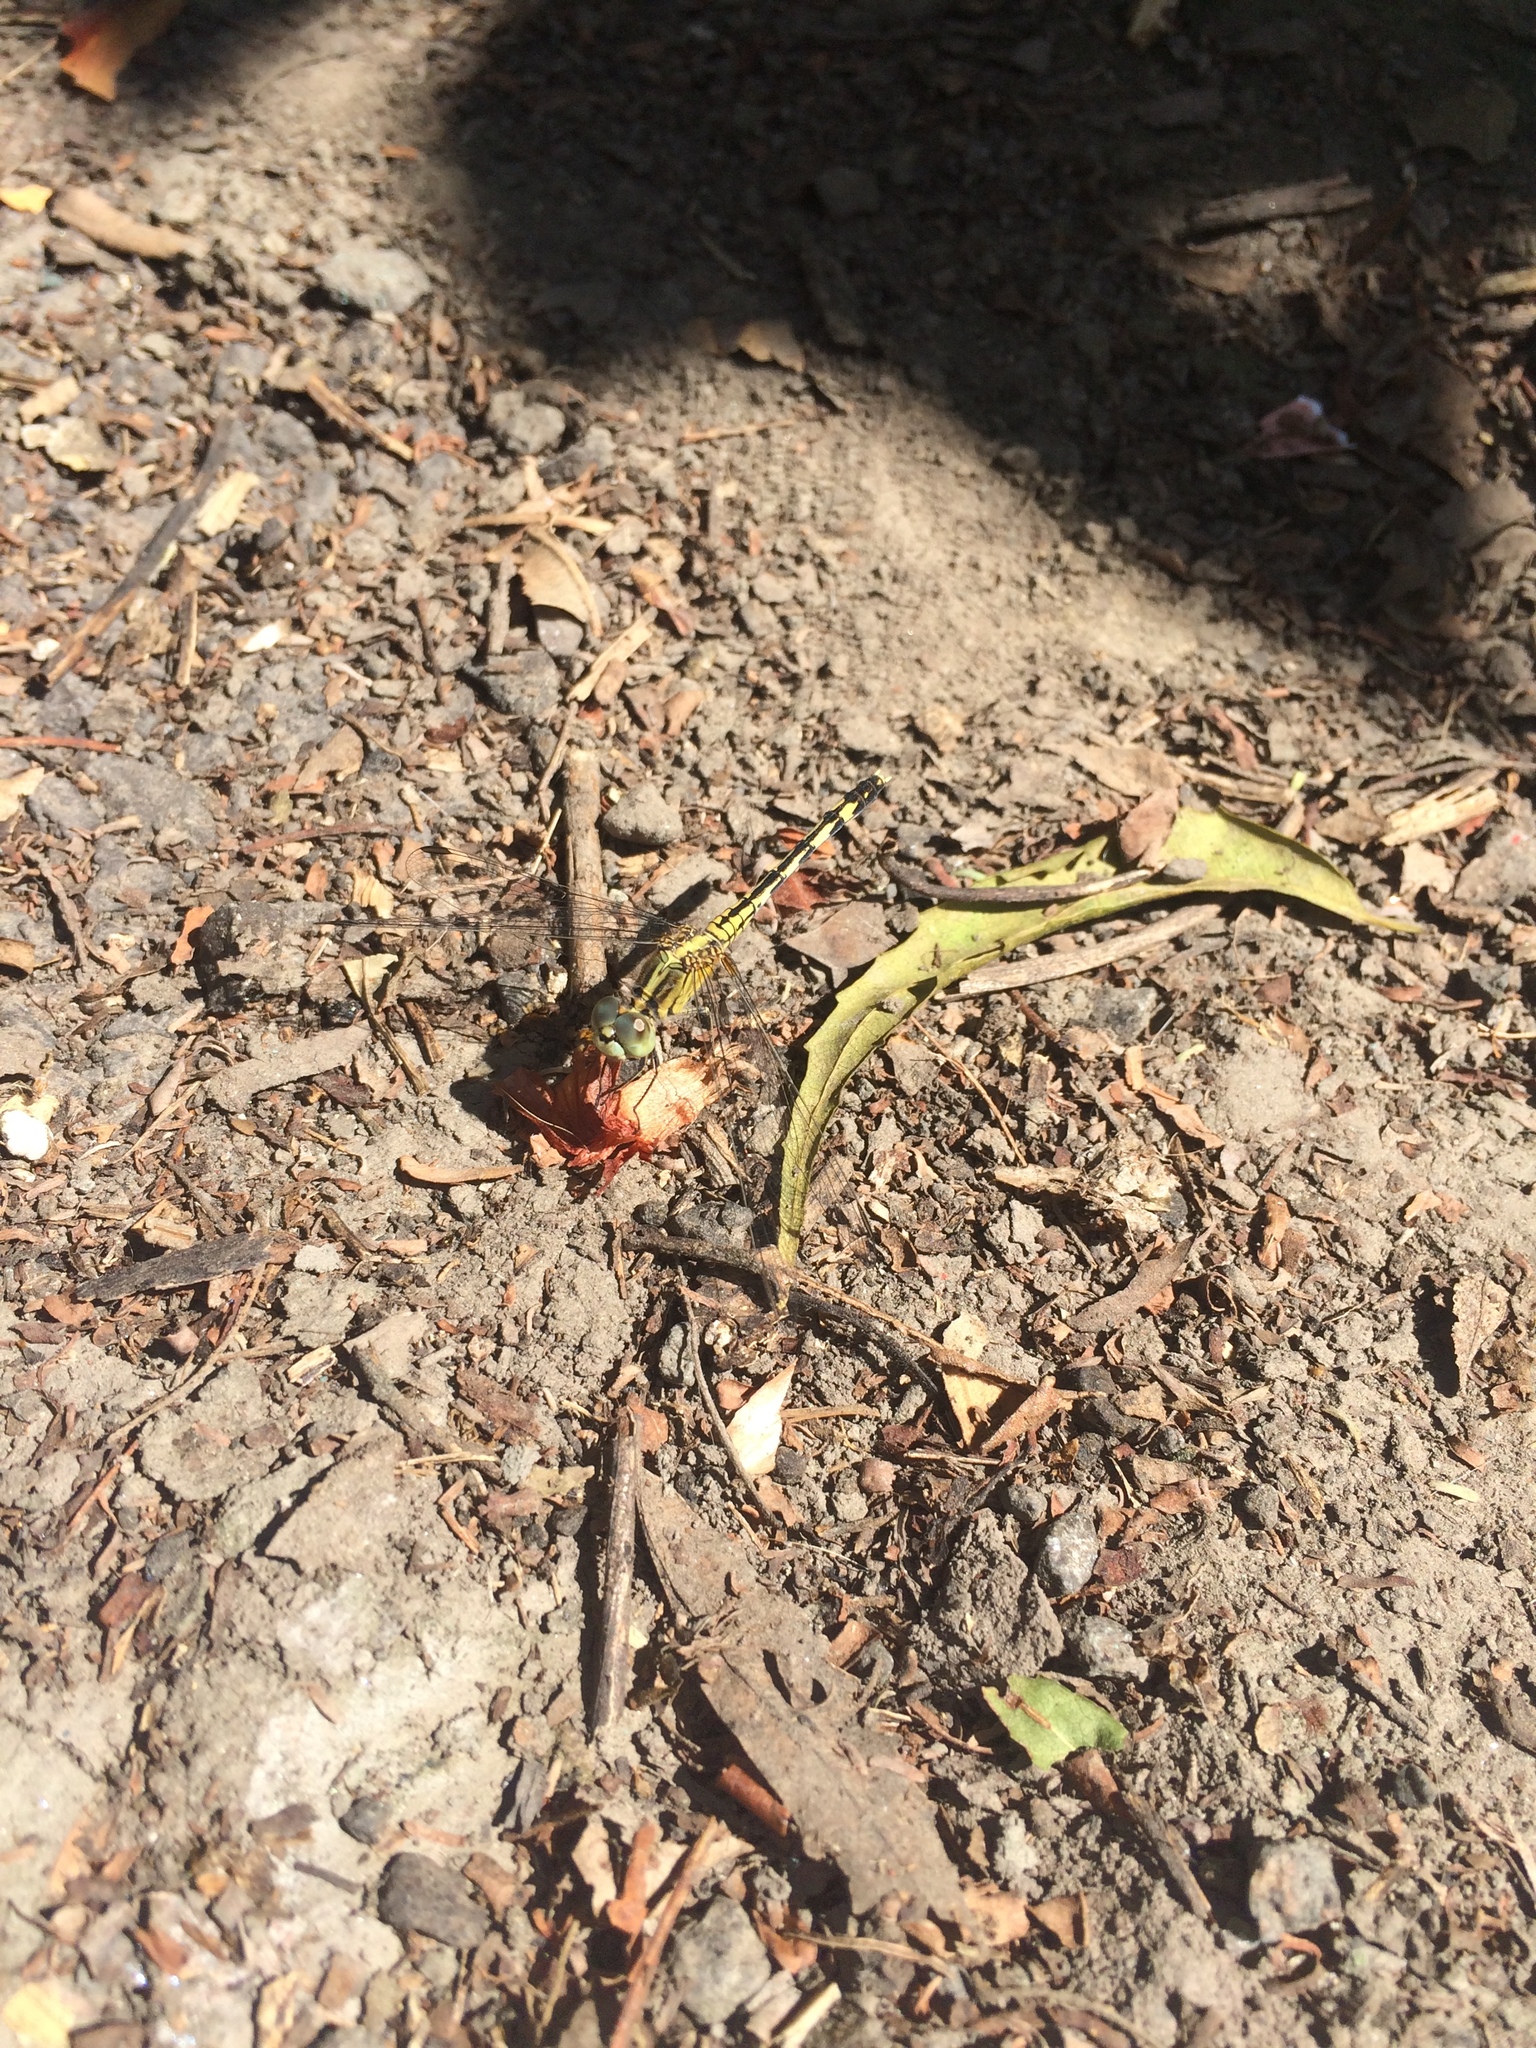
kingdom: Animalia
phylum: Arthropoda
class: Insecta
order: Odonata
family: Libellulidae
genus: Diplacodes
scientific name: Diplacodes trivialis
